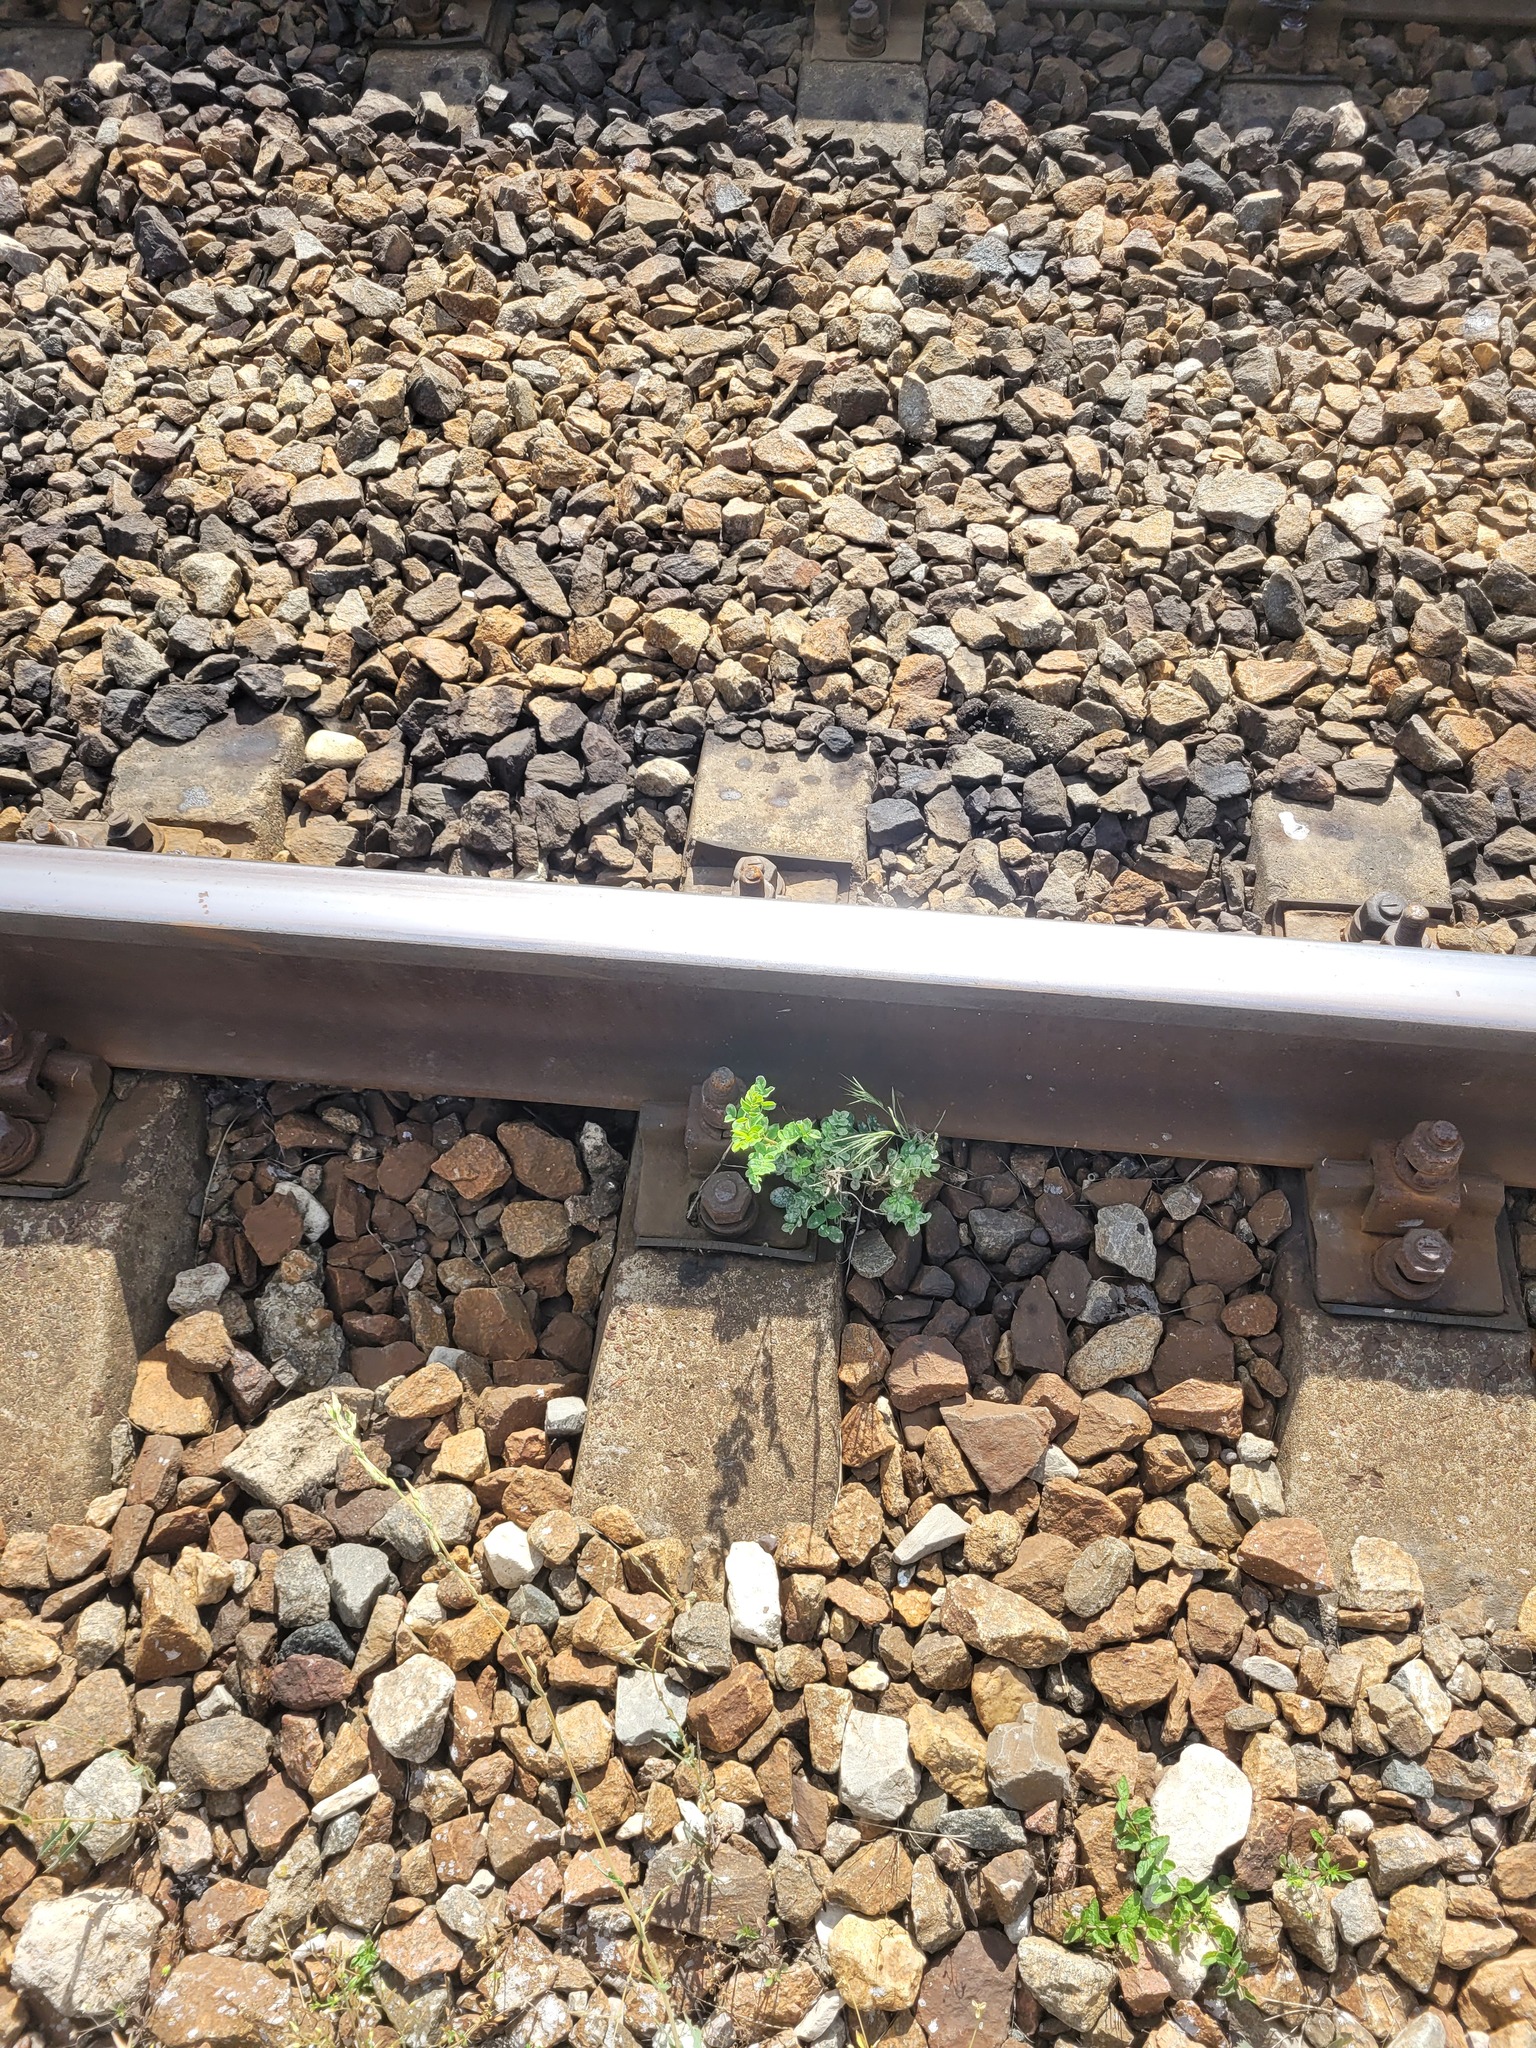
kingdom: Plantae
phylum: Tracheophyta
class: Magnoliopsida
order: Fabales
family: Fabaceae
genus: Caragana
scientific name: Caragana arborescens
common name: Siberian peashrub
